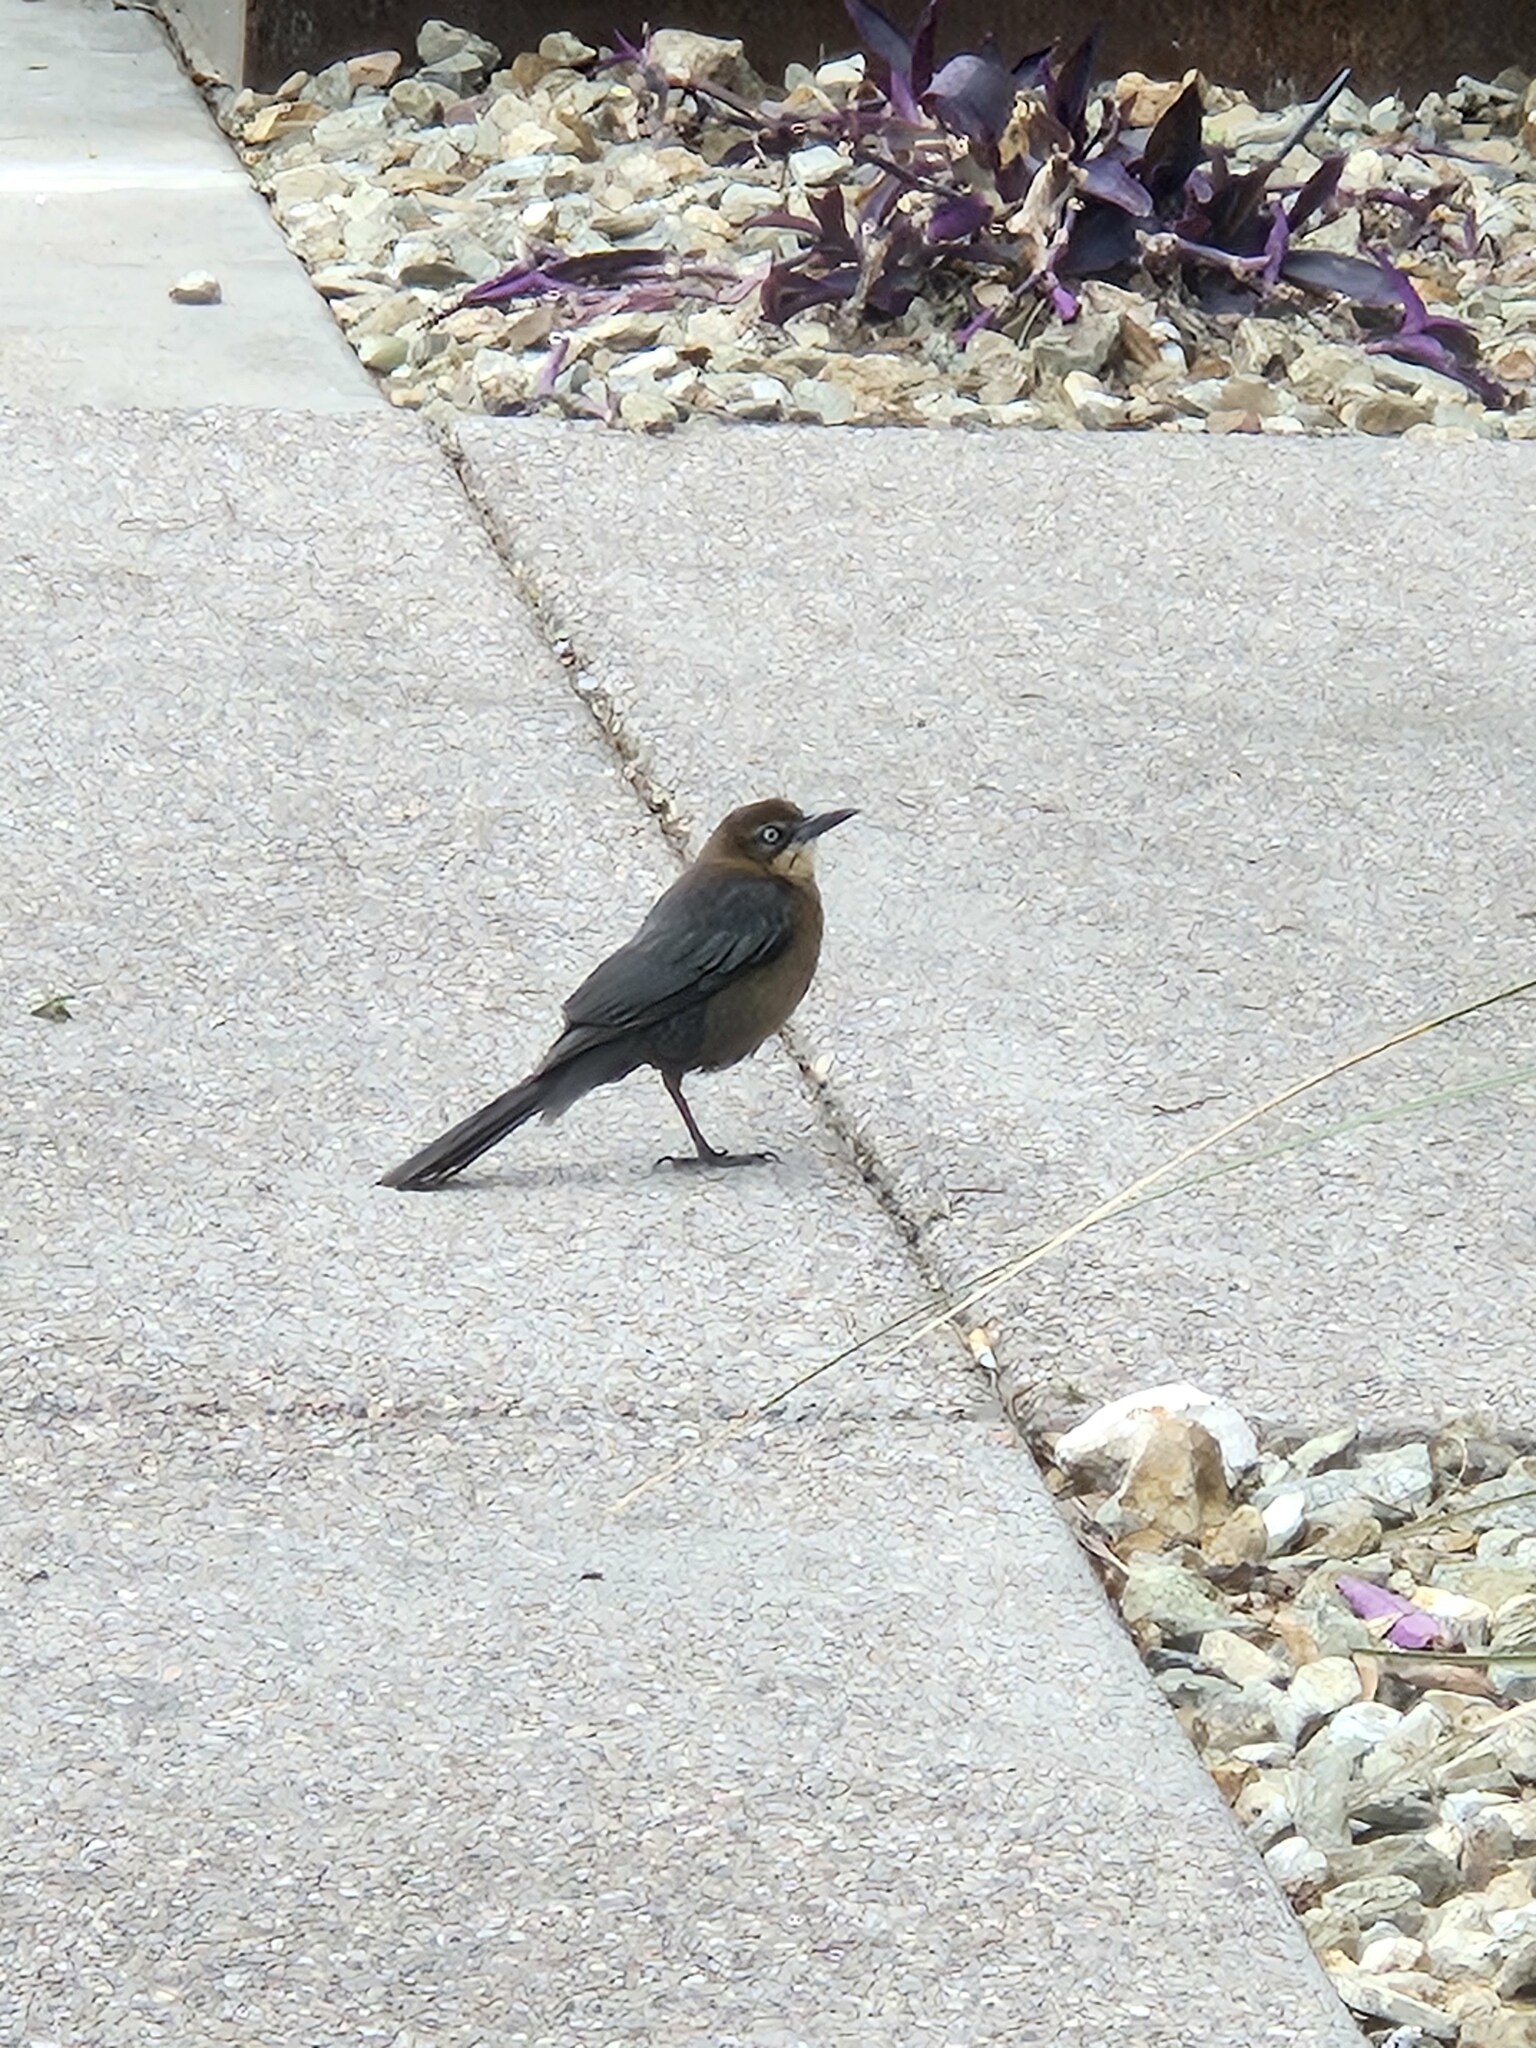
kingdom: Animalia
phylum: Chordata
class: Aves
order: Passeriformes
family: Icteridae
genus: Quiscalus
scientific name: Quiscalus mexicanus
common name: Great-tailed grackle
